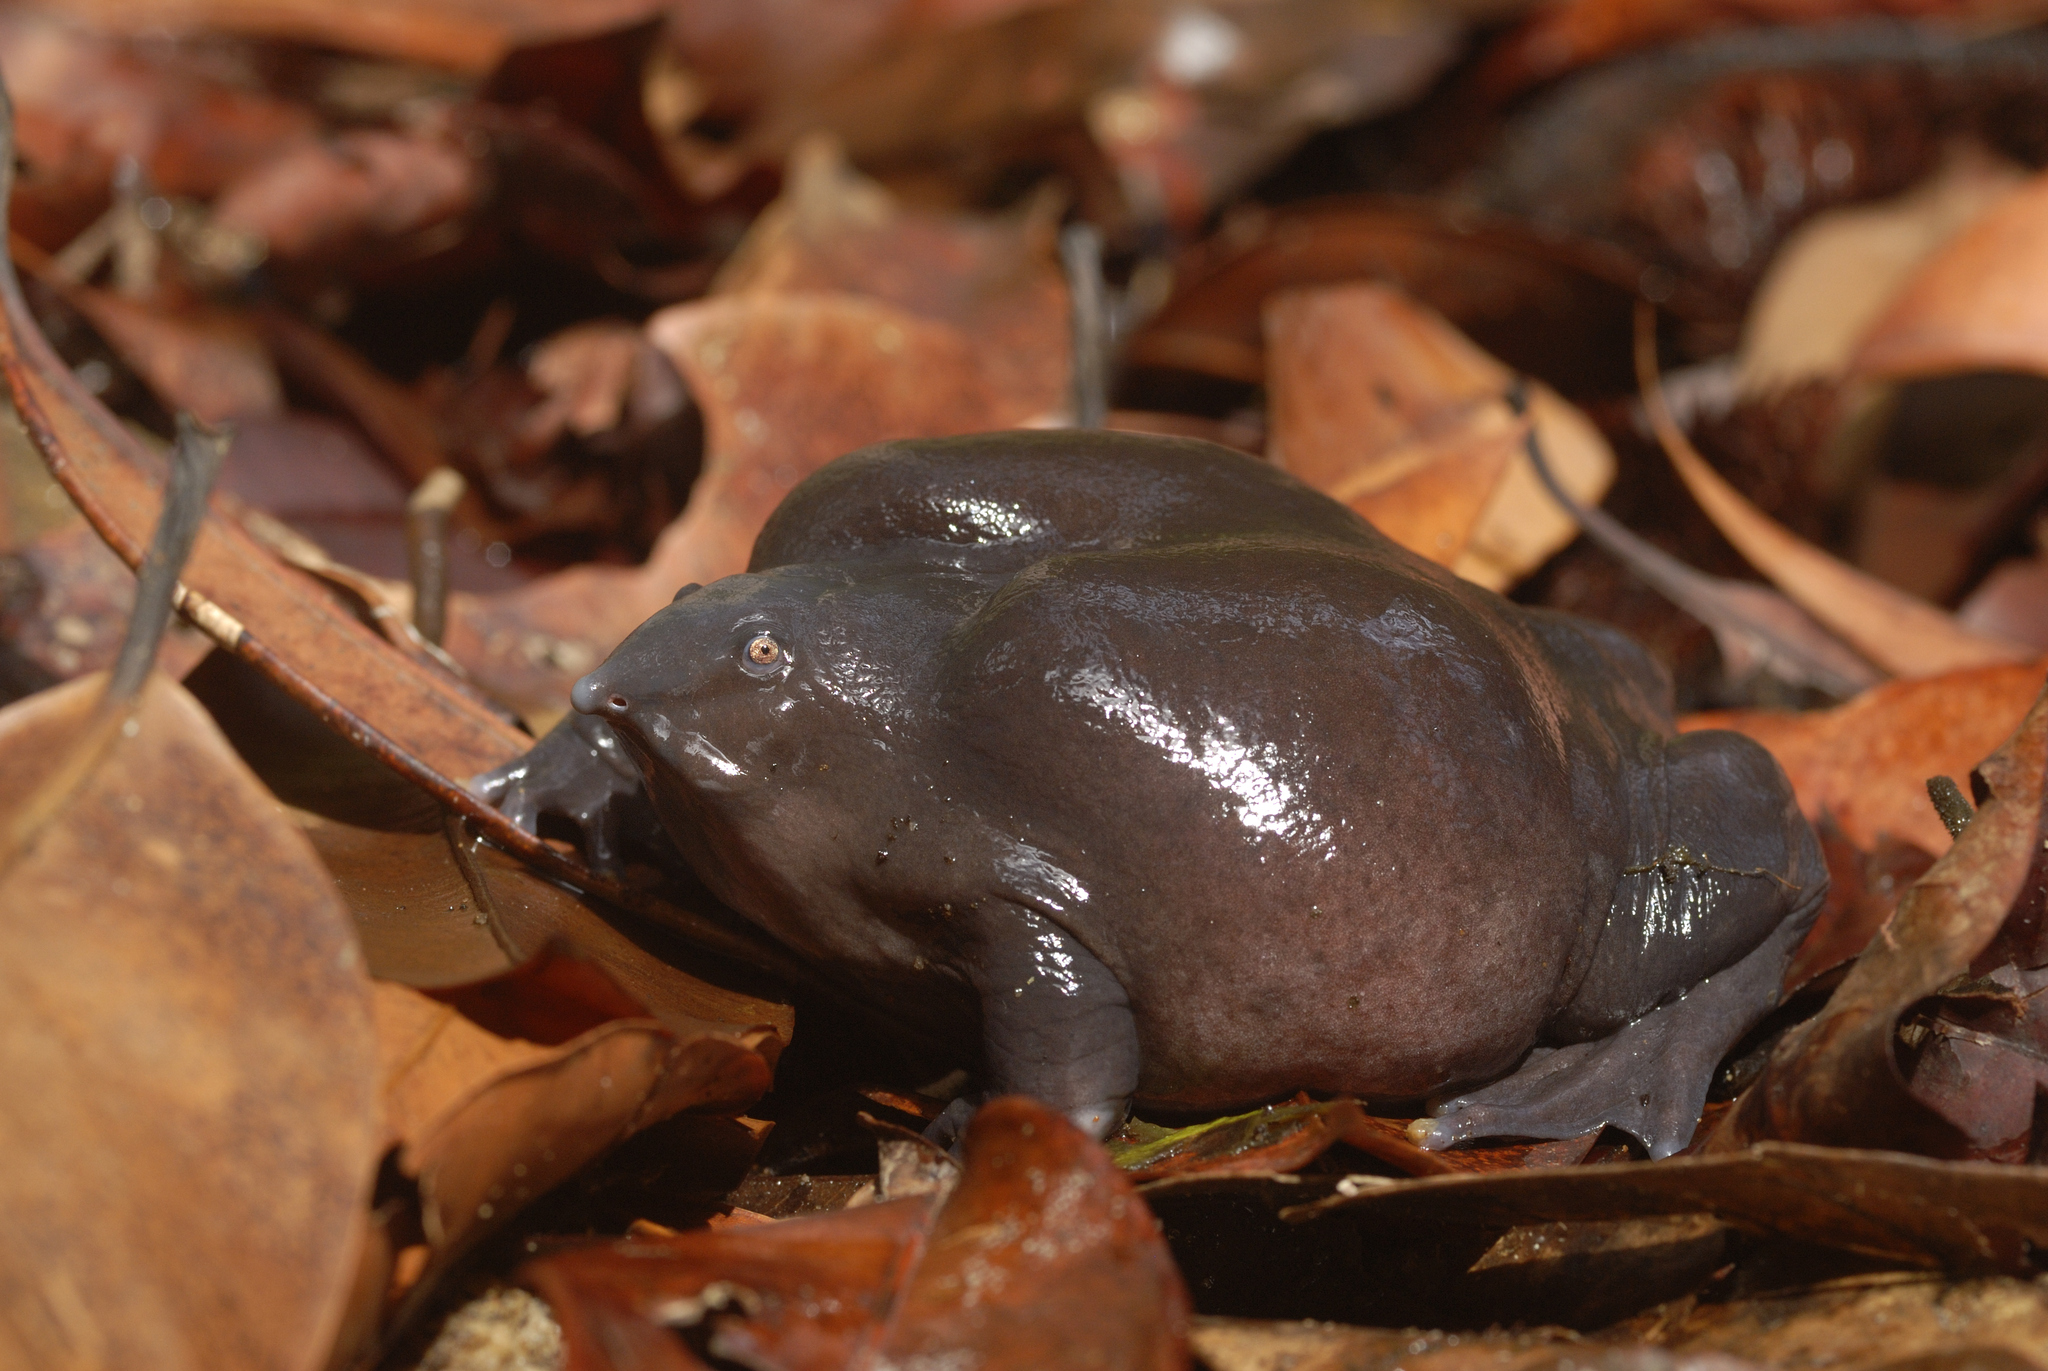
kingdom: Animalia
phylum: Chordata
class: Amphibia
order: Anura
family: Nasikabatrachidae
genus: Nasikabatrachus
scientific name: Nasikabatrachus sahyadrensis
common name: Purple frog
